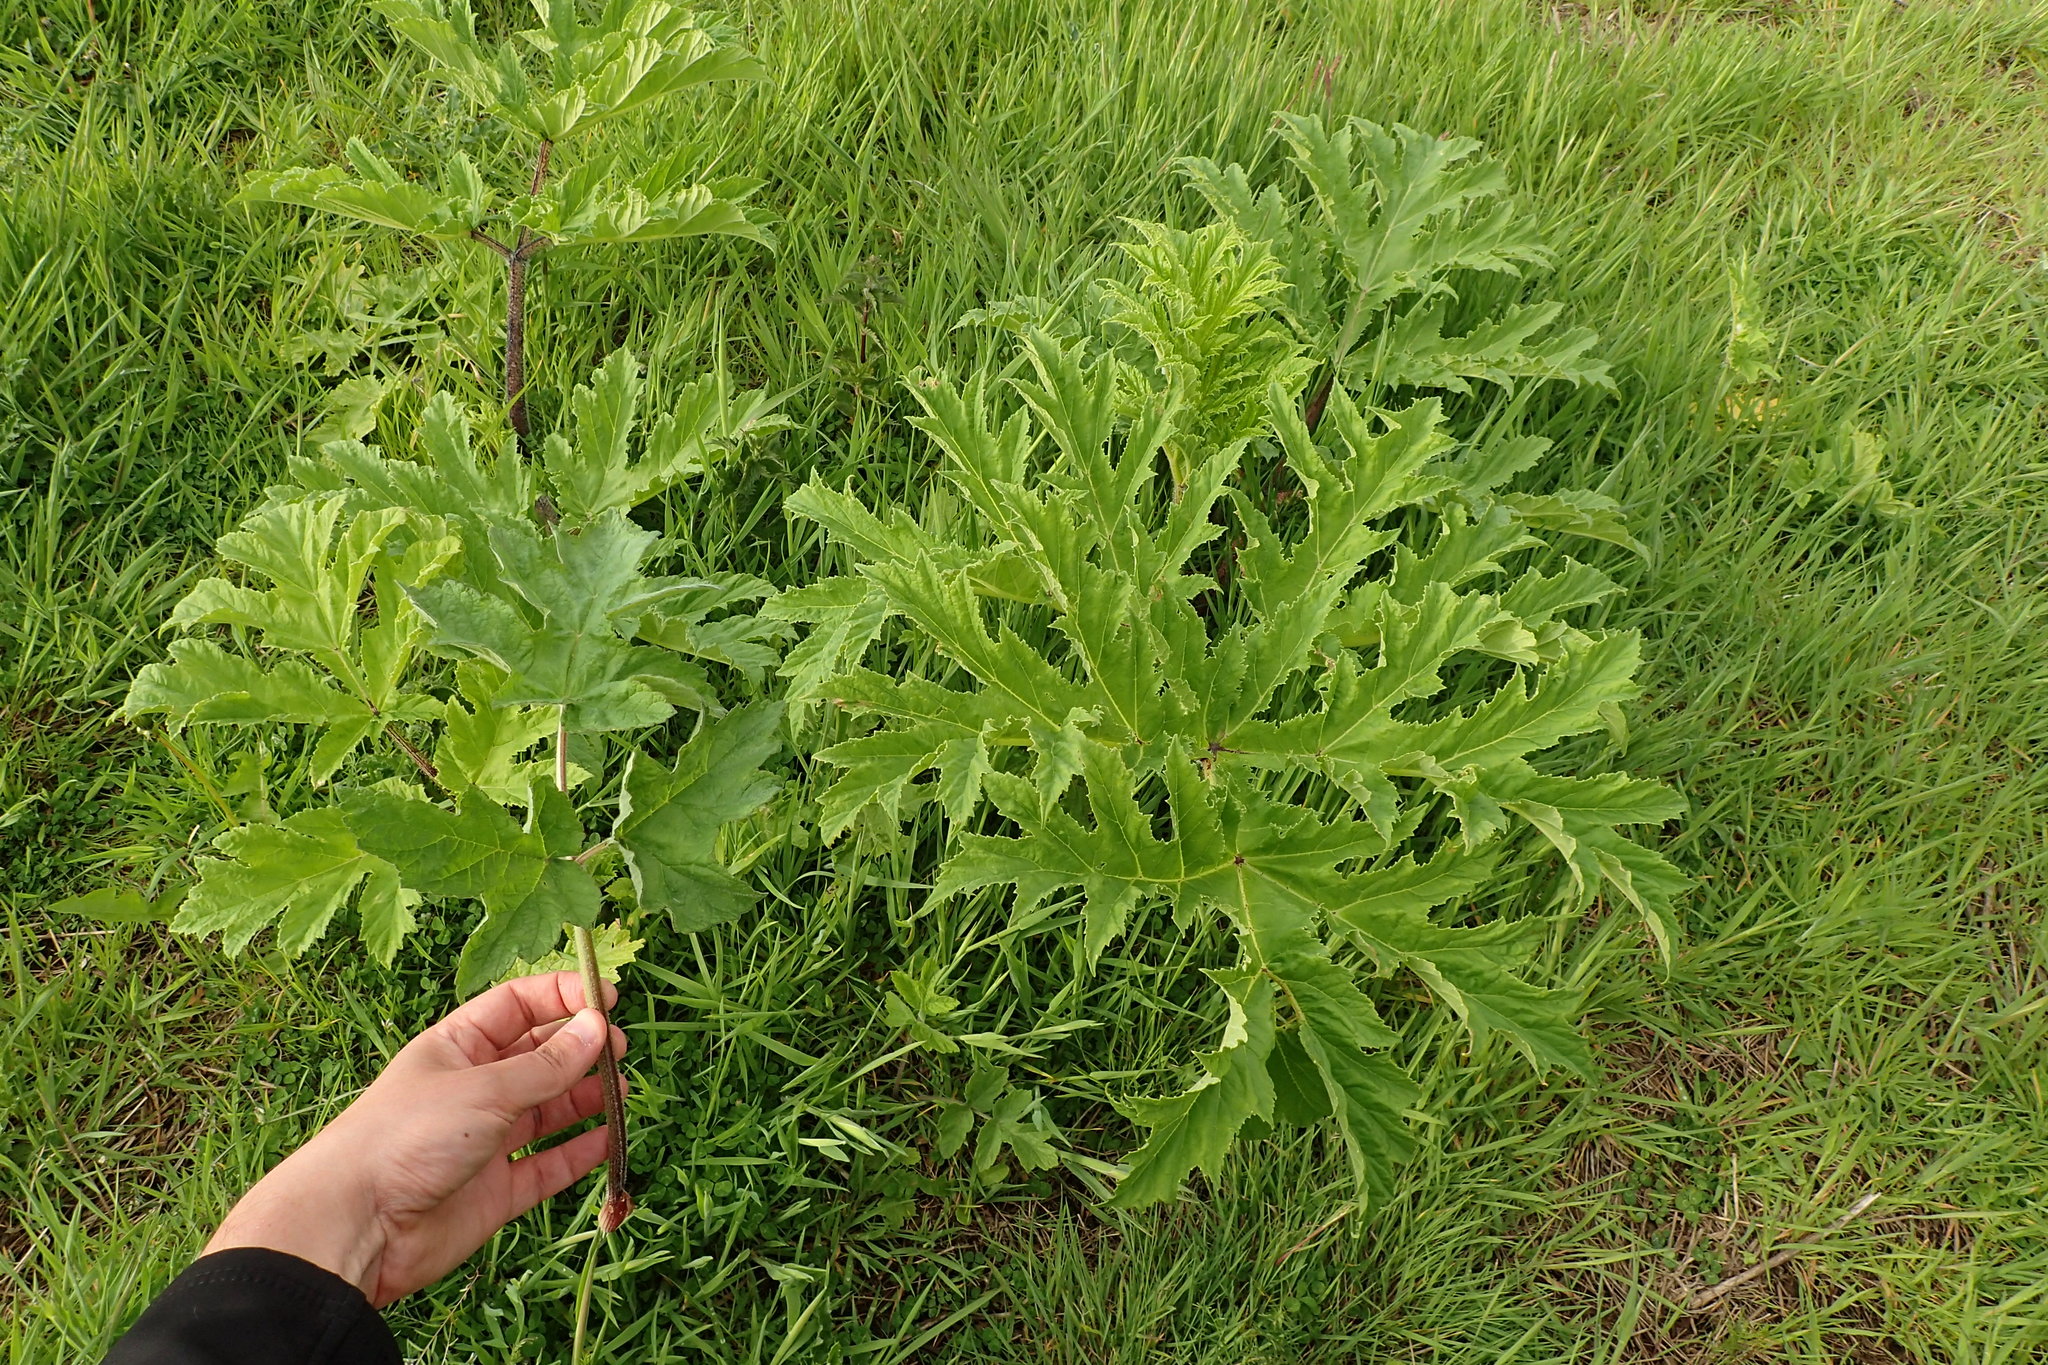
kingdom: Plantae
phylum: Tracheophyta
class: Magnoliopsida
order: Apiales
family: Apiaceae
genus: Heracleum
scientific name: Heracleum mantegazzianum
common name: Giant hogweed
